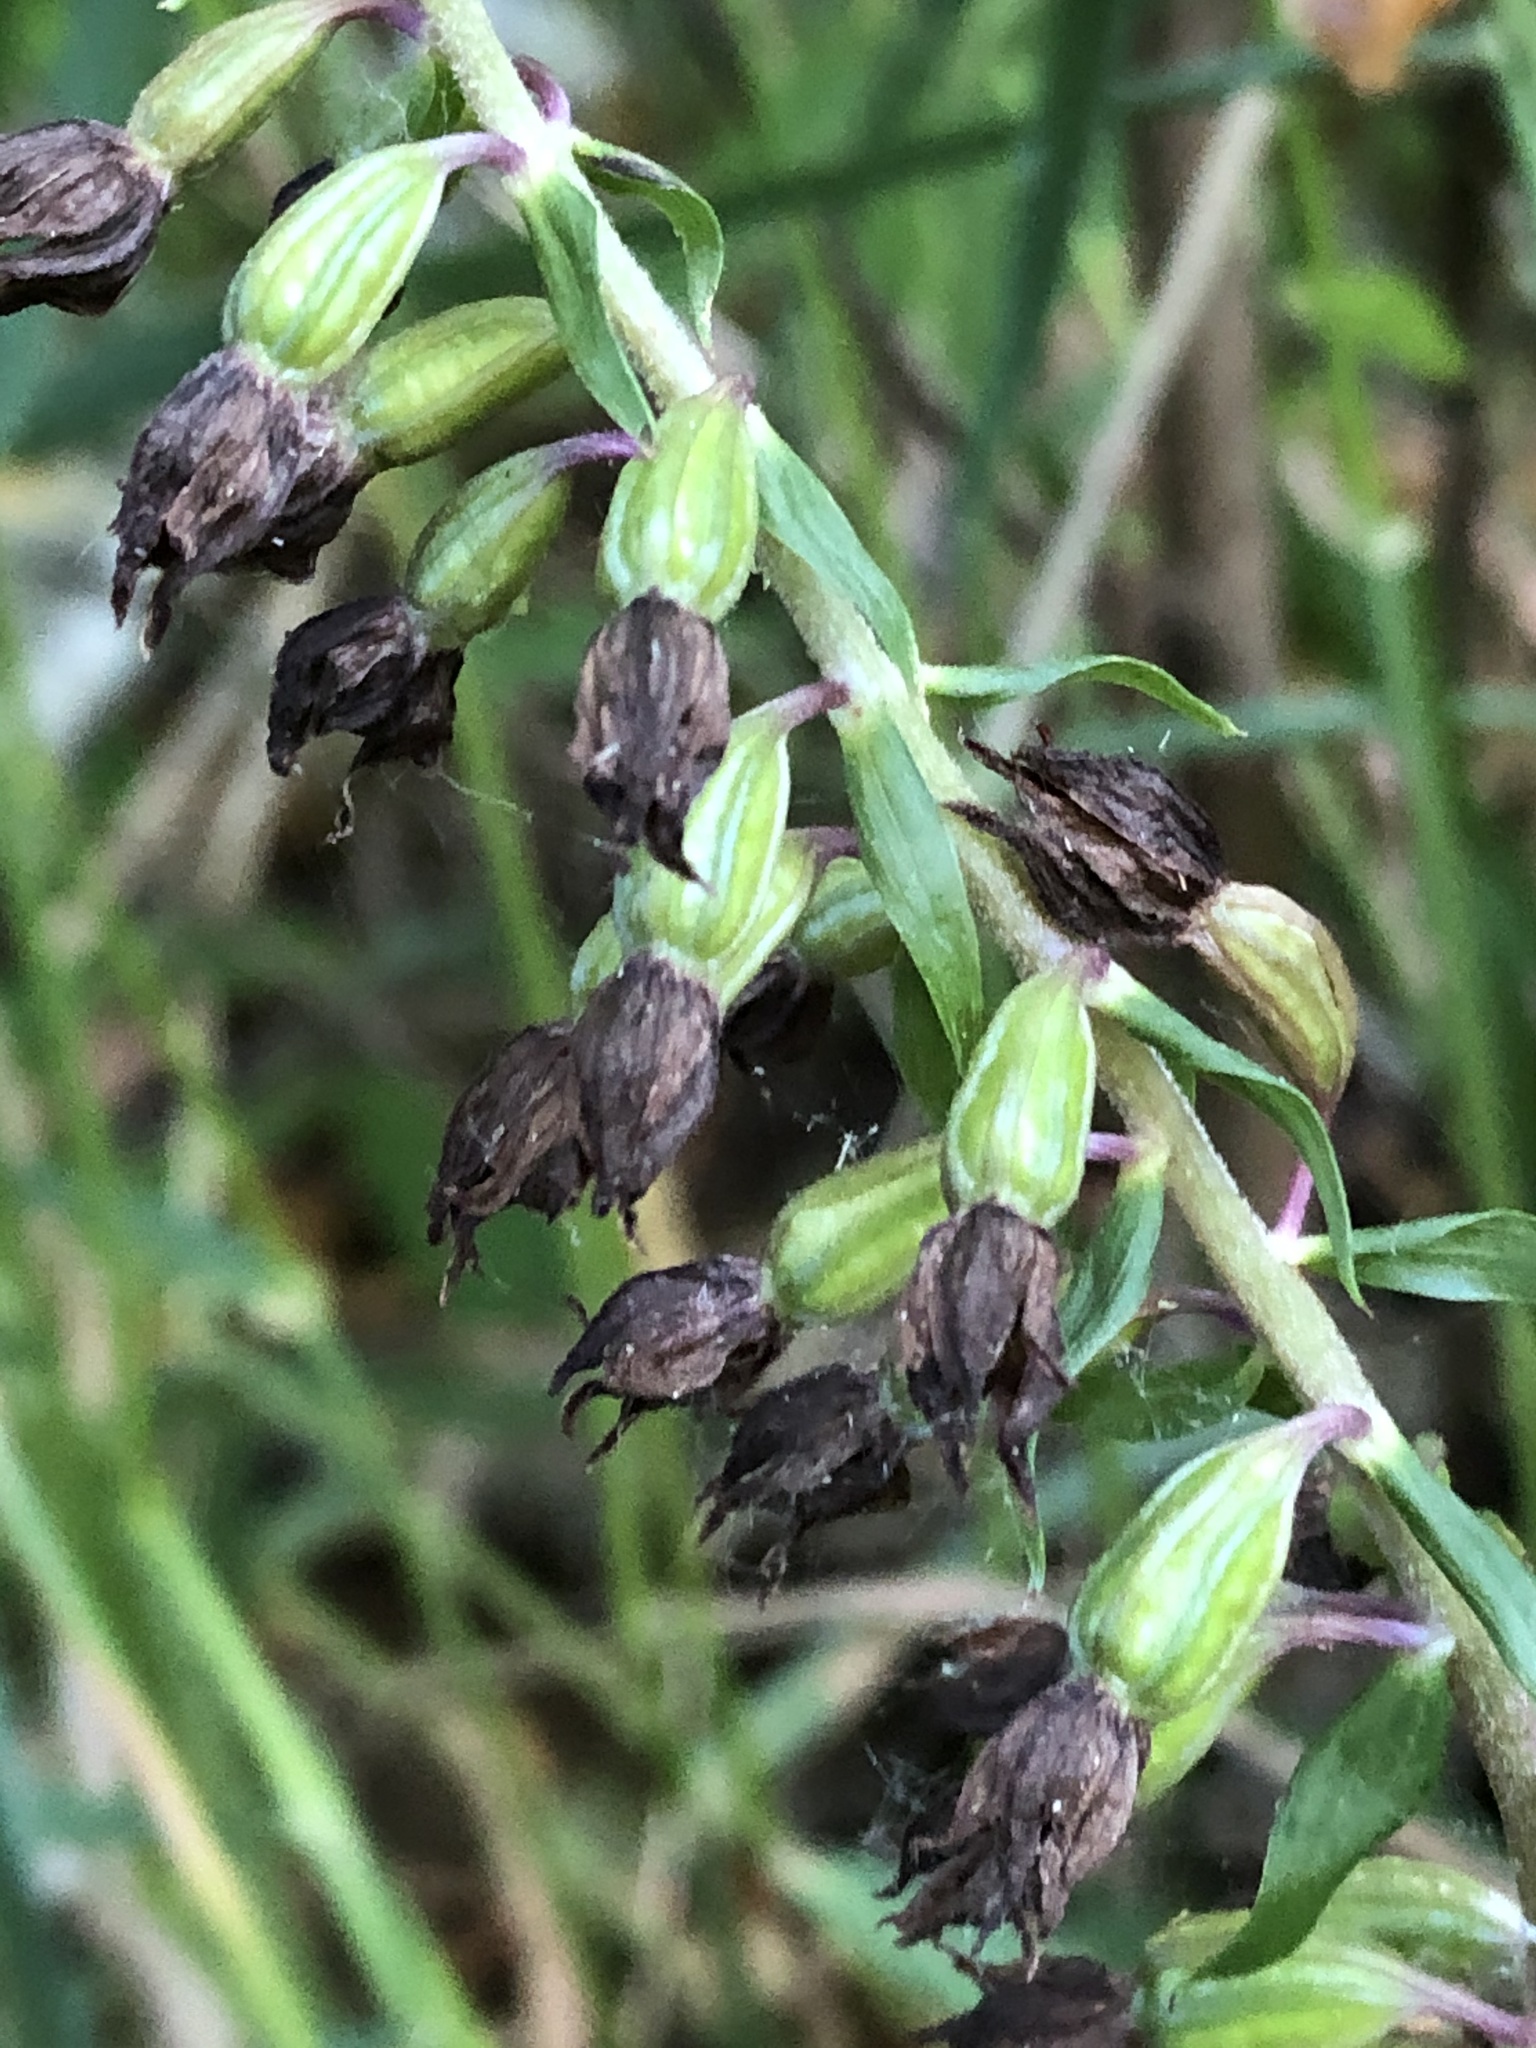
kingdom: Plantae
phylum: Tracheophyta
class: Liliopsida
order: Asparagales
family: Orchidaceae
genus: Epipactis
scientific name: Epipactis helleborine
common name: Broad-leaved helleborine
